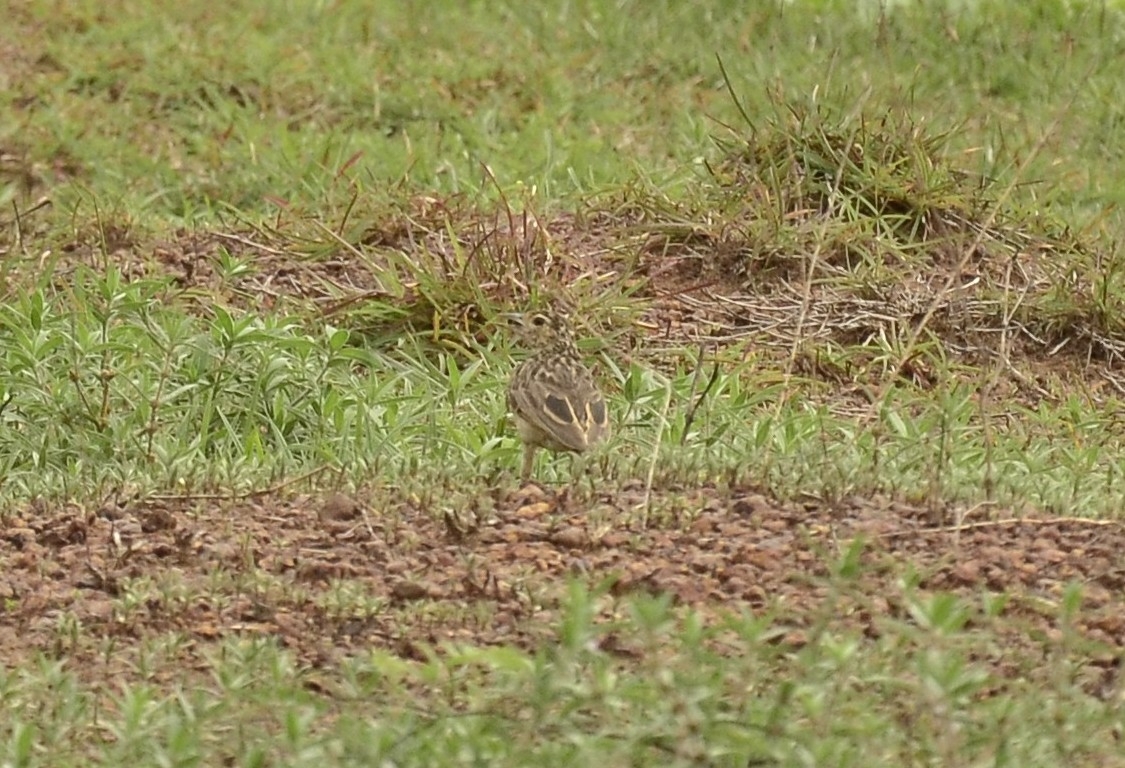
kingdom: Animalia
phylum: Chordata
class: Aves
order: Passeriformes
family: Alaudidae
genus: Mirafra
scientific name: Mirafra affinis
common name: Jerdon's bushlark
